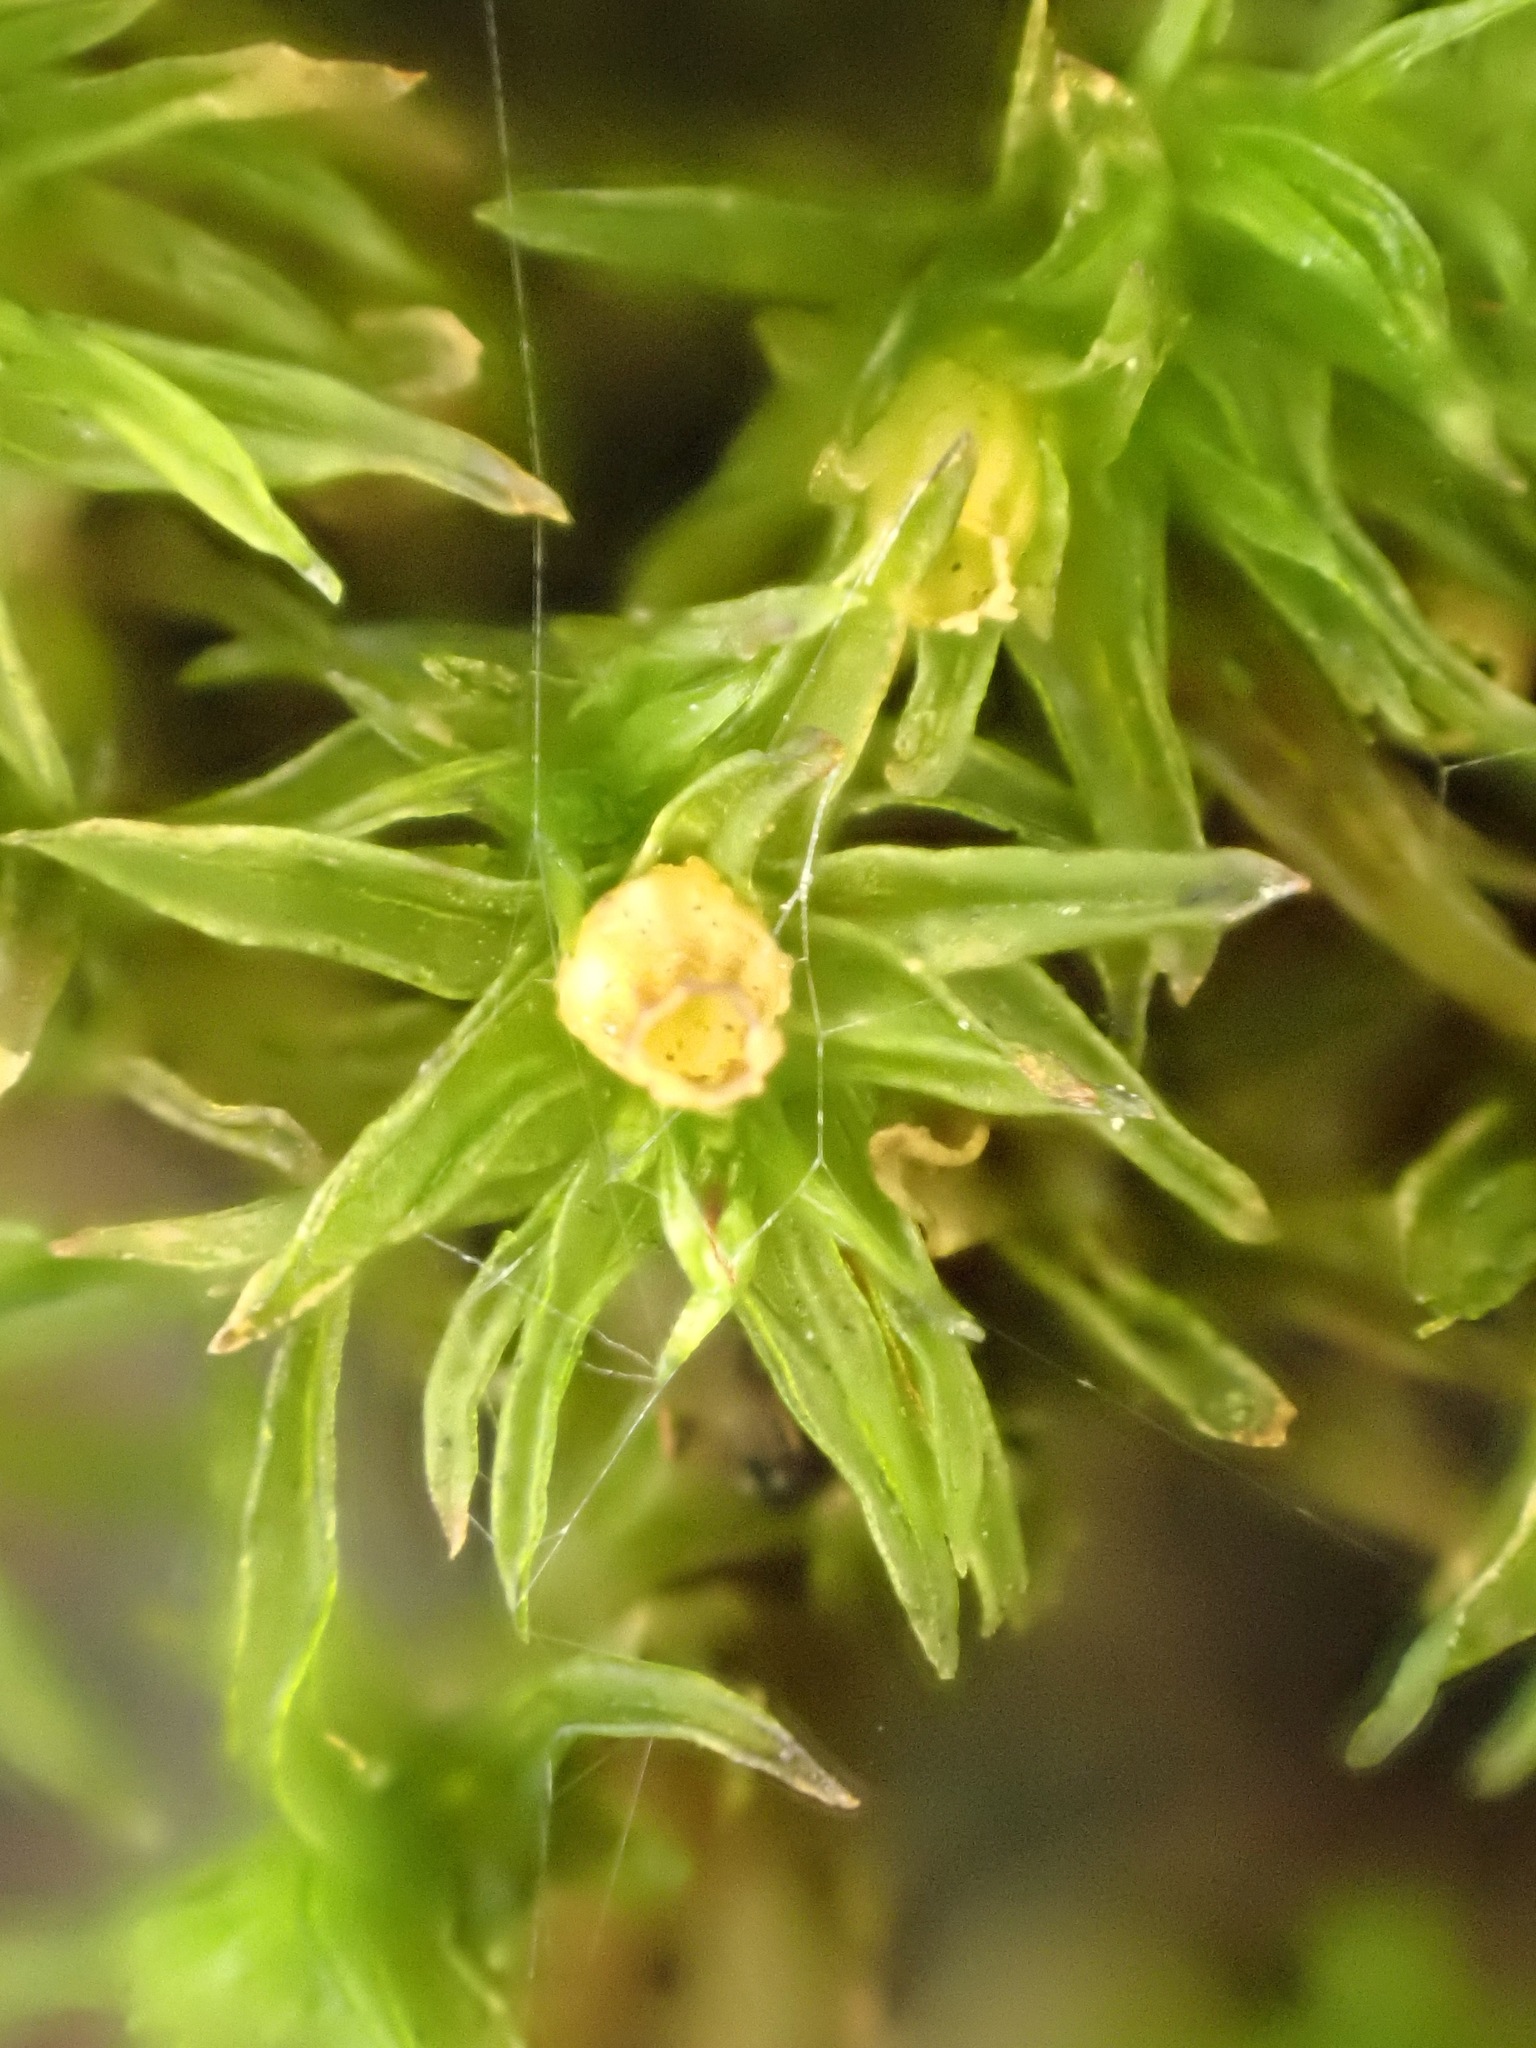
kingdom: Plantae
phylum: Bryophyta
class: Bryopsida
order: Orthotrichales
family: Orthotrichaceae
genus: Lewinskya
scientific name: Lewinskya affinis
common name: Wood bristle-moss
